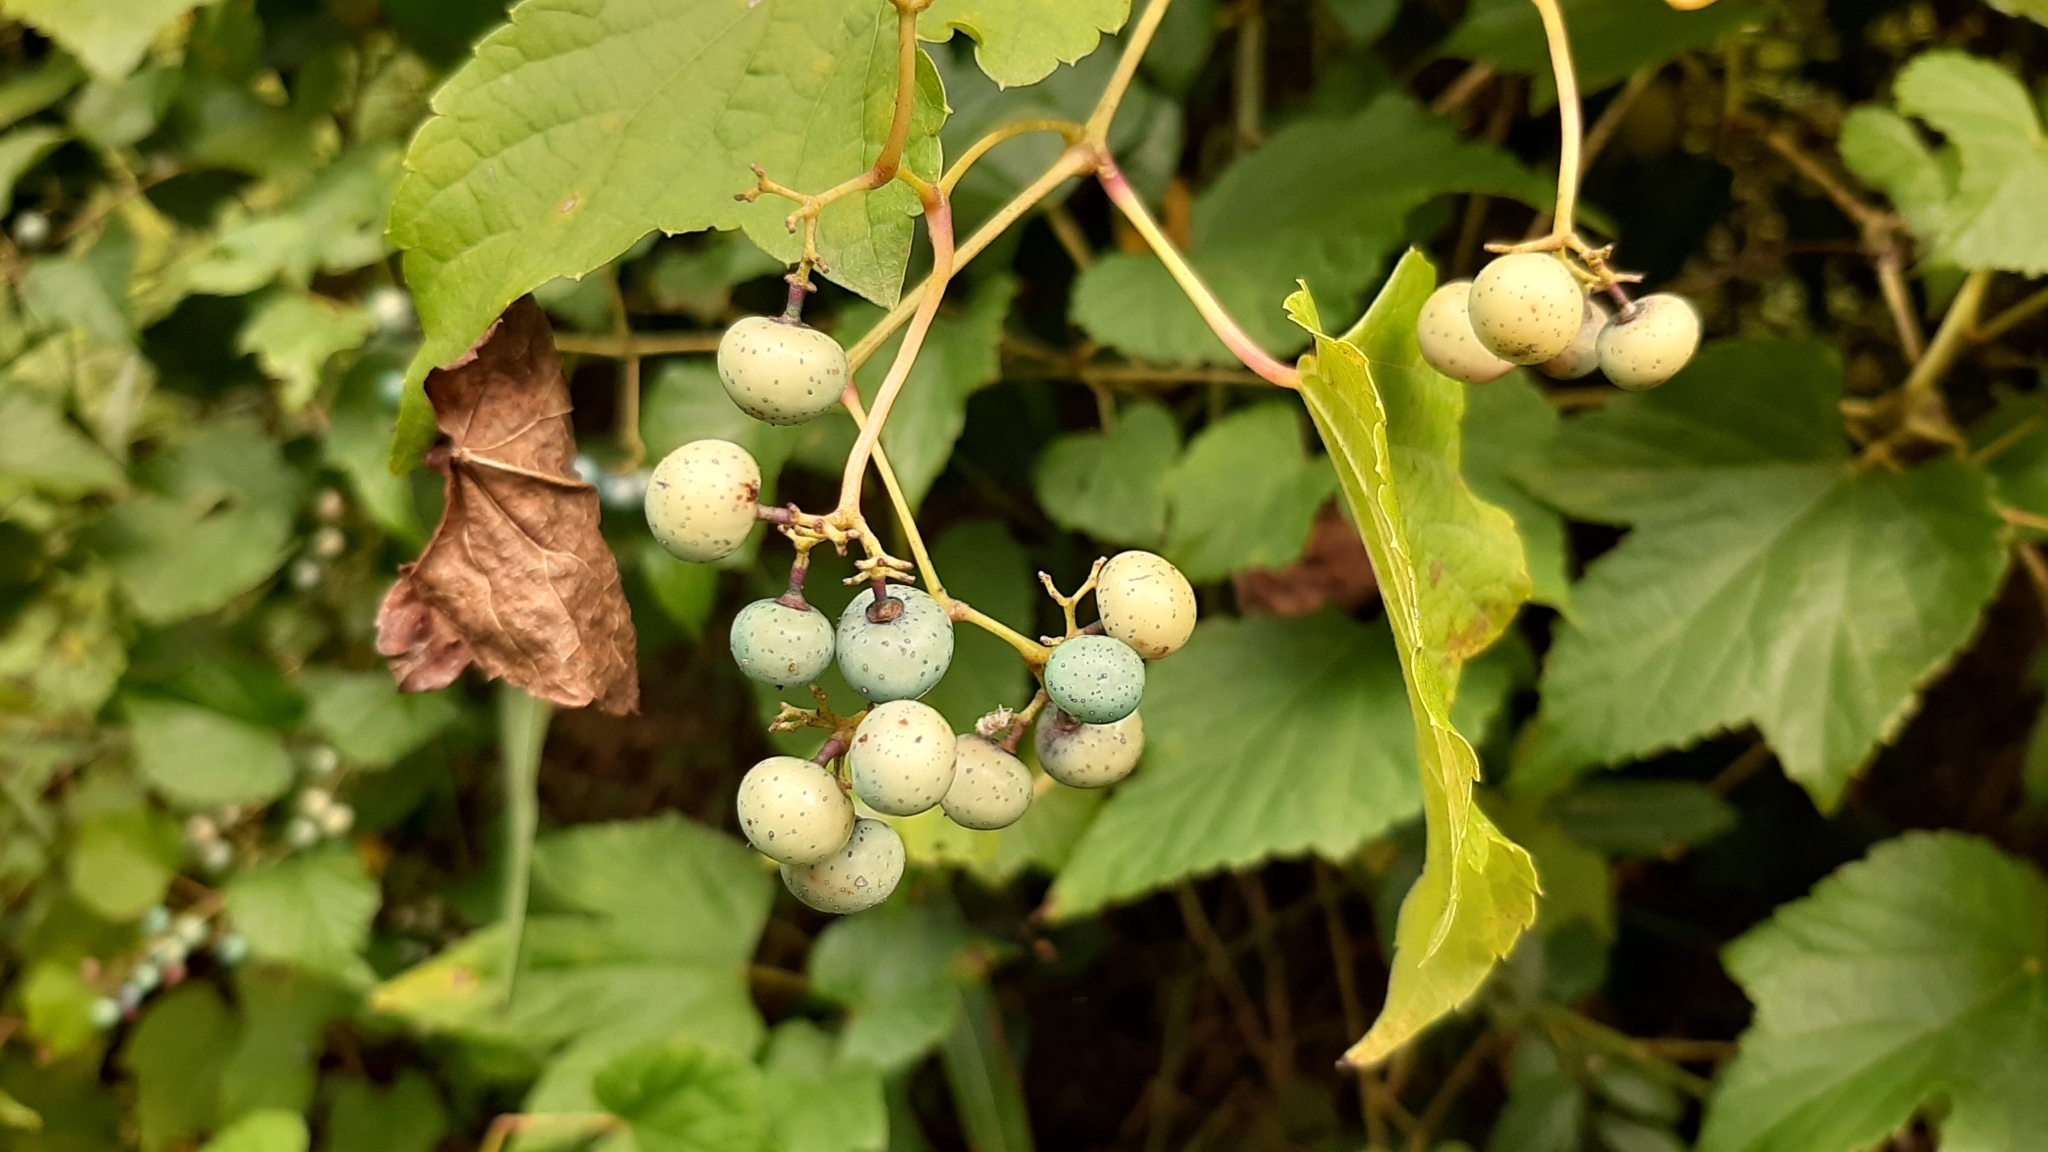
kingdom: Plantae
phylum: Tracheophyta
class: Magnoliopsida
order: Vitales
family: Vitaceae
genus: Ampelopsis
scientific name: Ampelopsis glandulosa
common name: Amur peppervine
